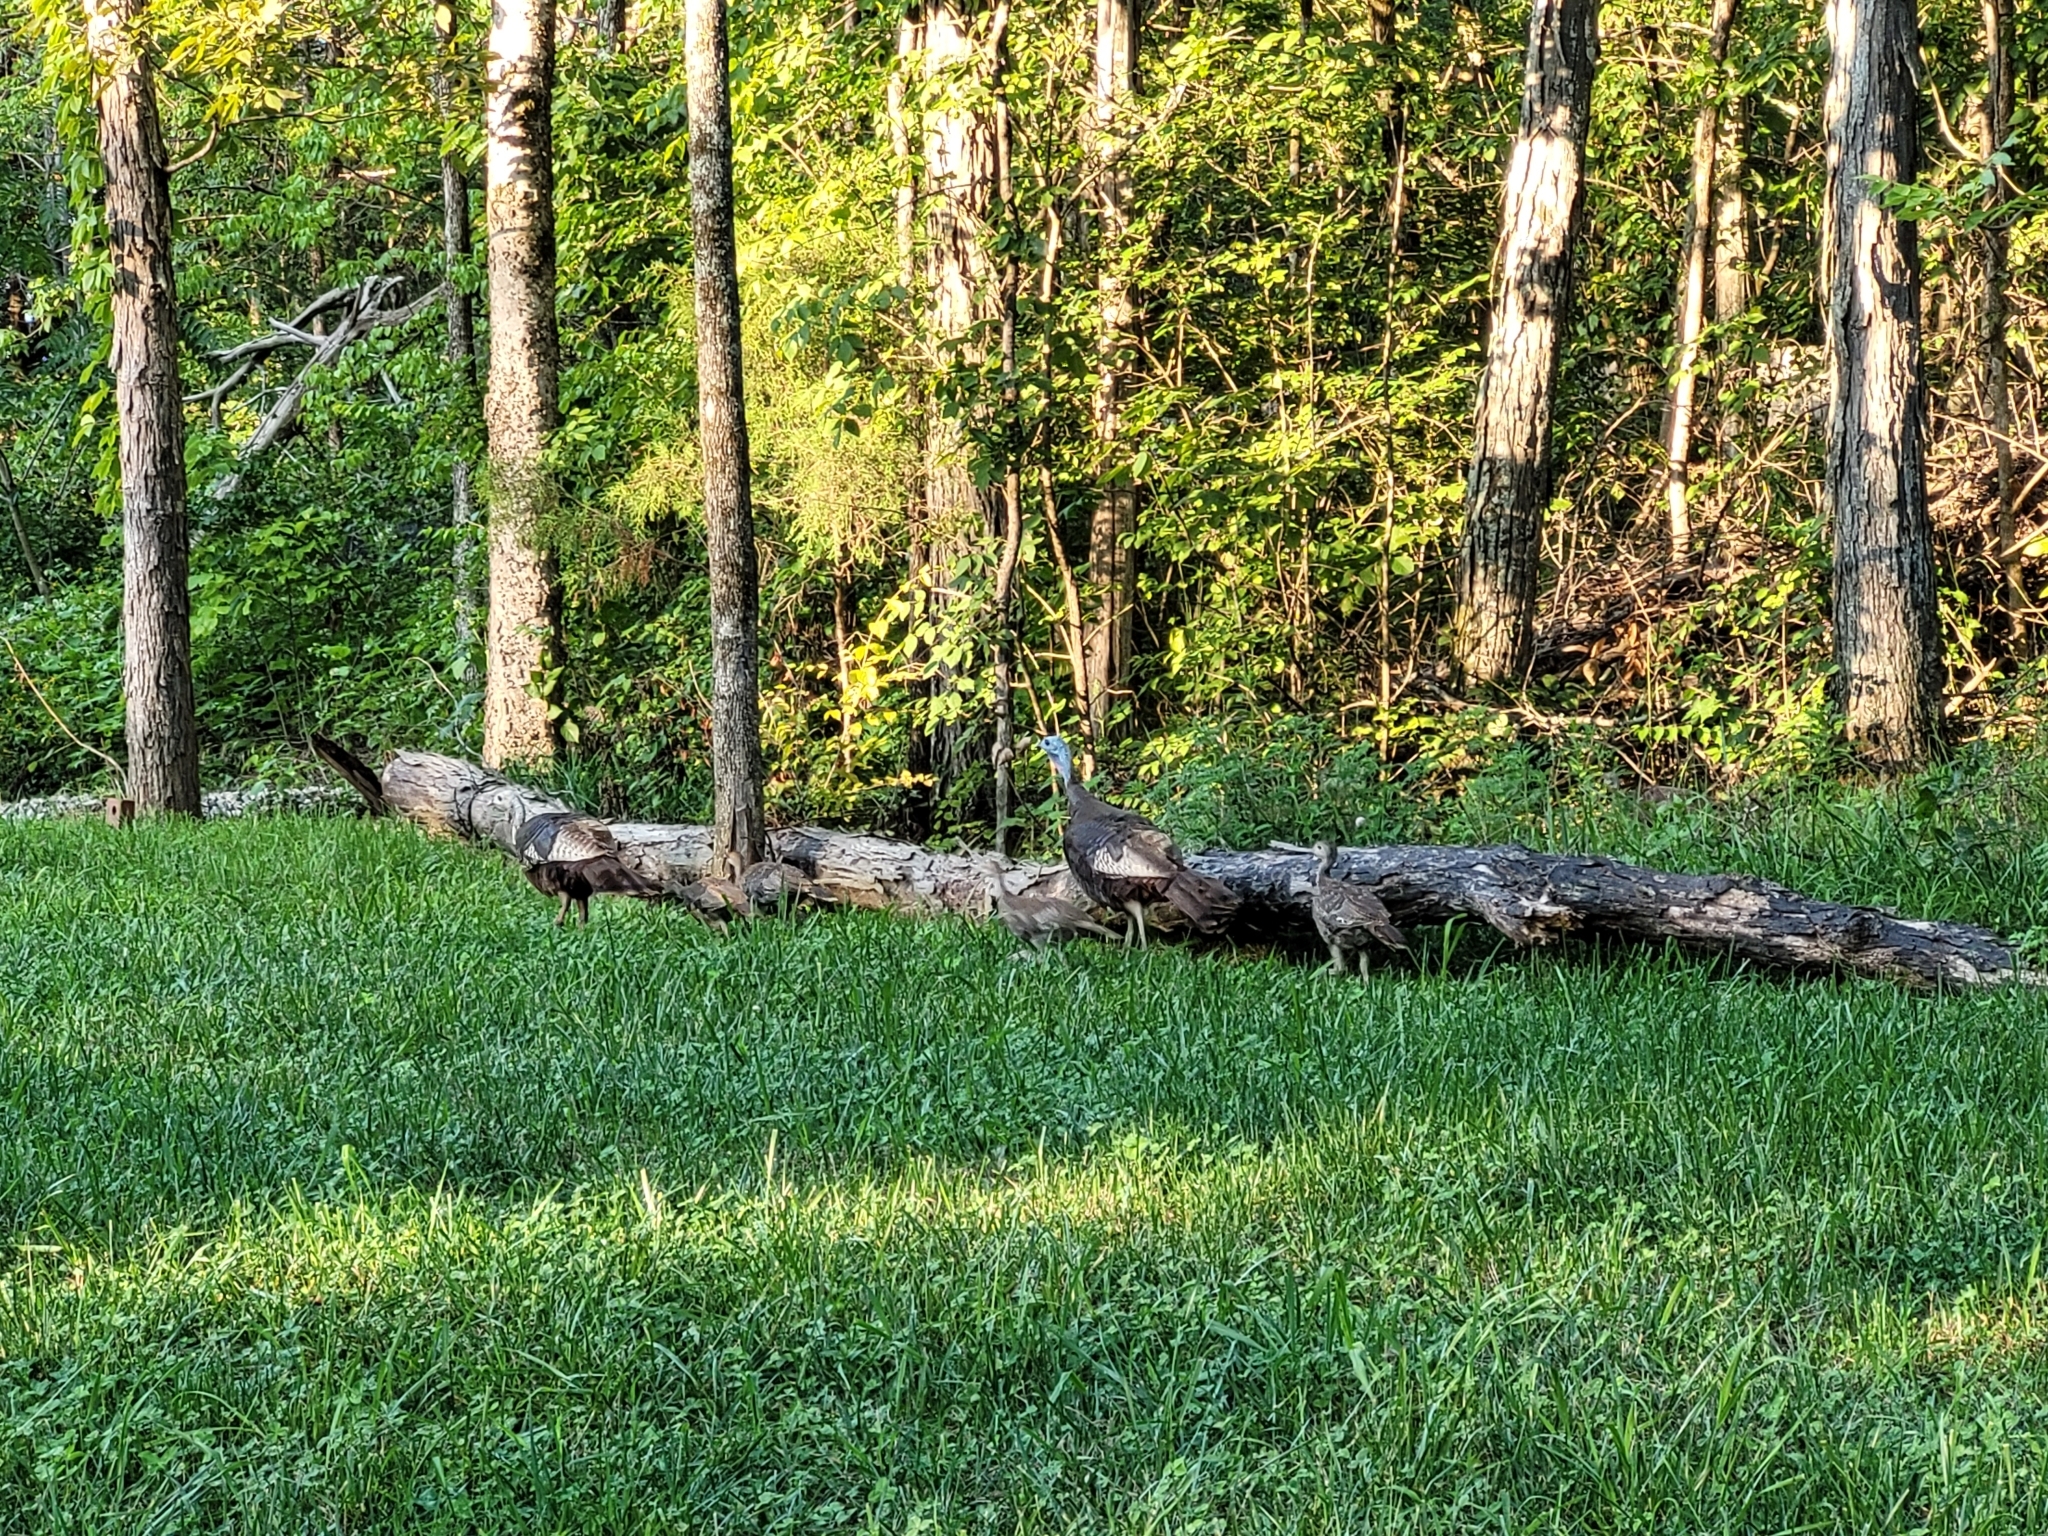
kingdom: Animalia
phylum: Chordata
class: Aves
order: Galliformes
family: Phasianidae
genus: Meleagris
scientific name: Meleagris gallopavo
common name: Wild turkey
